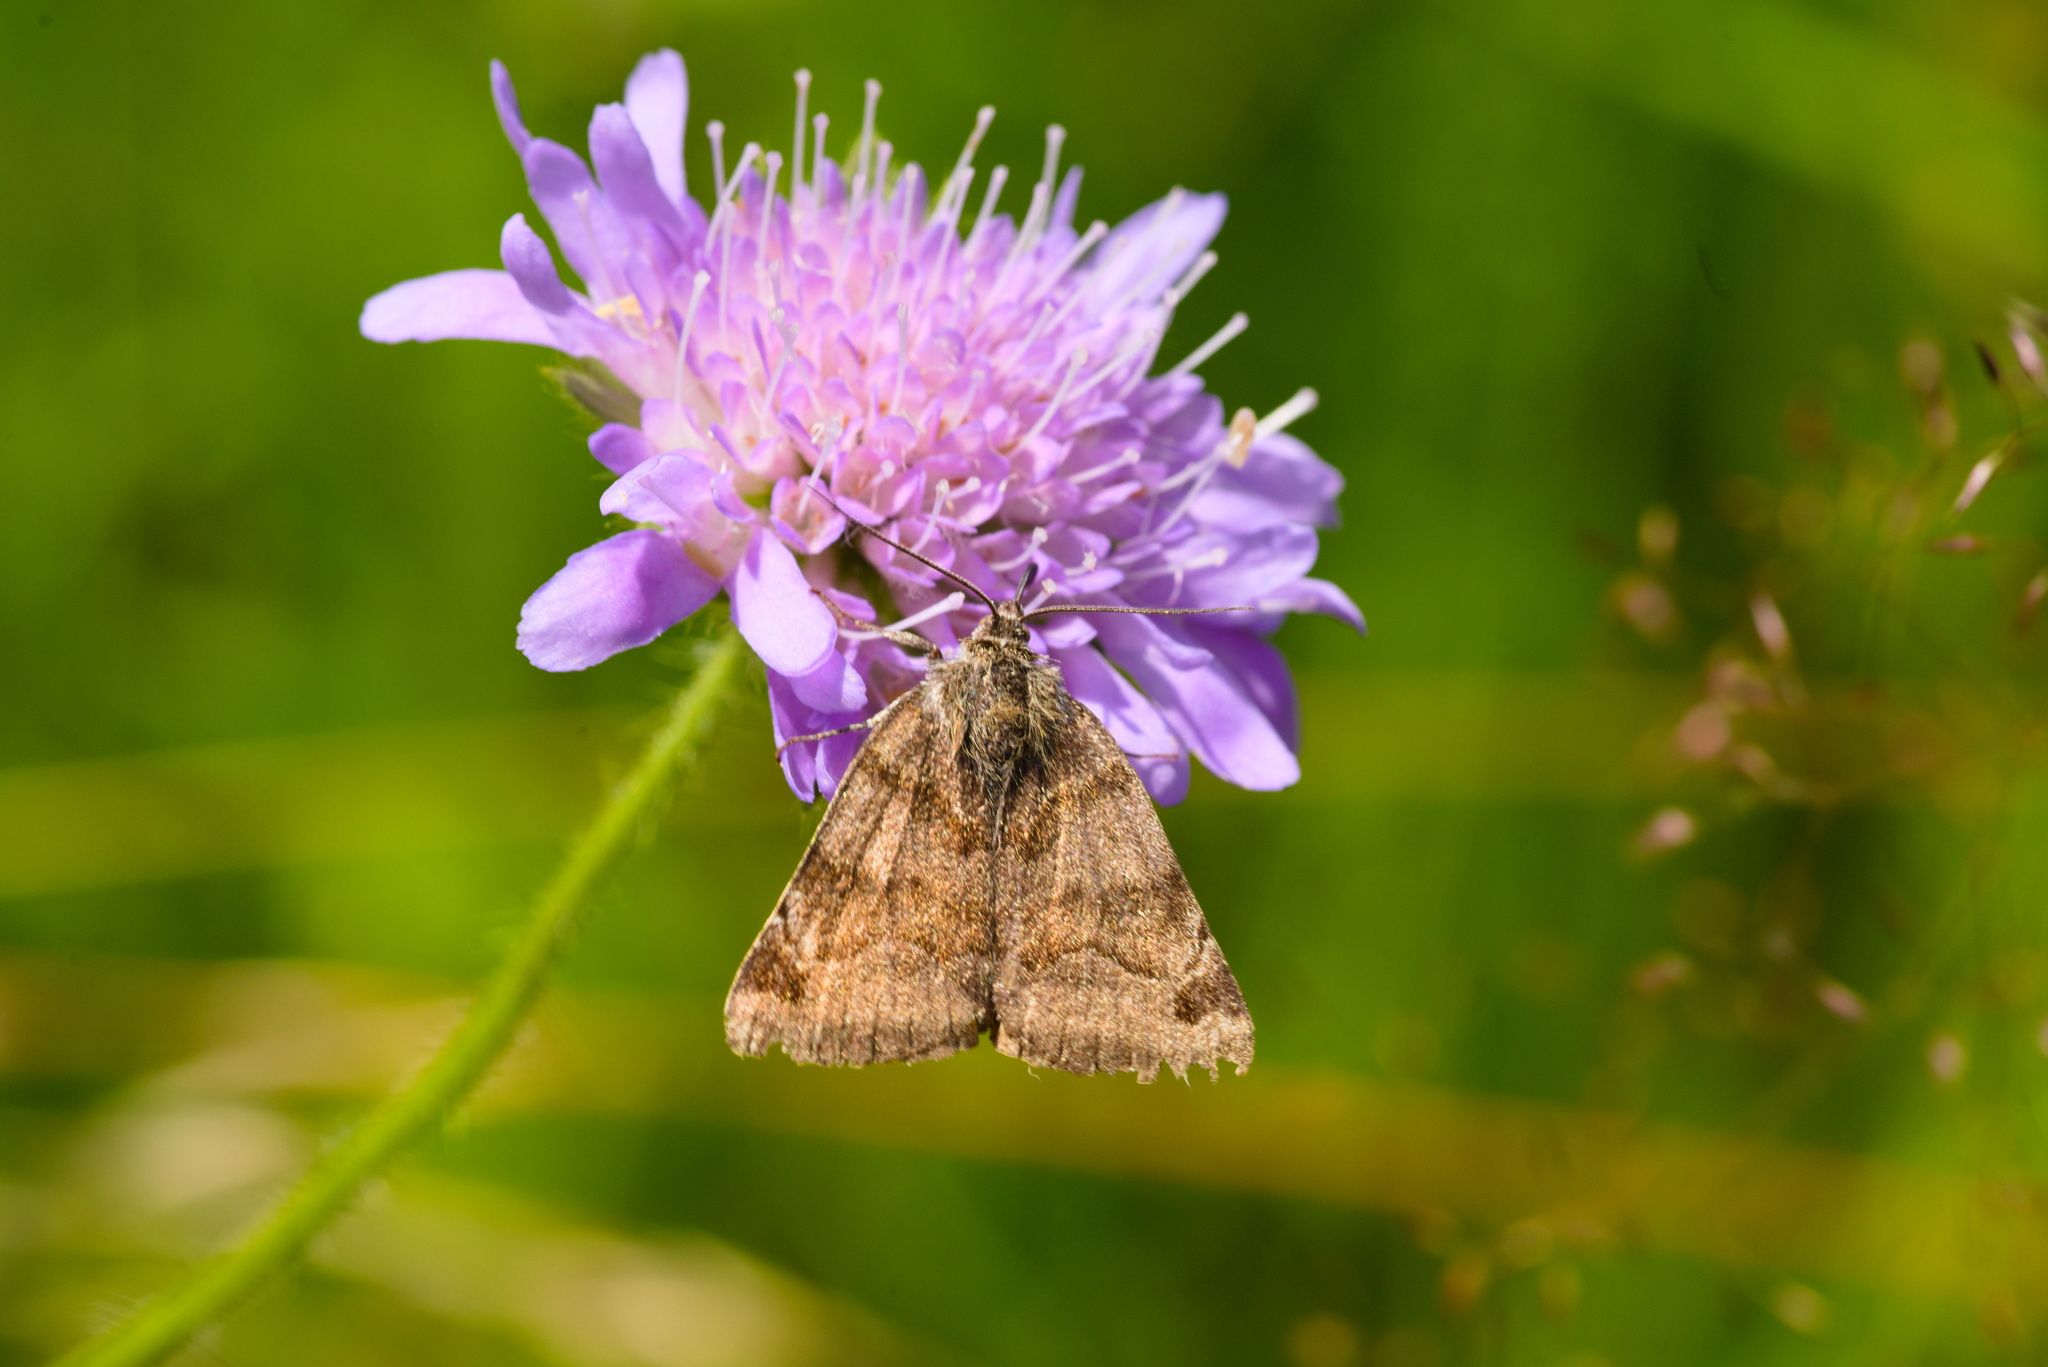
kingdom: Animalia
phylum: Arthropoda
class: Insecta
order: Lepidoptera
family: Erebidae
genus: Euclidia
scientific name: Euclidia glyphica
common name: Burnet companion
